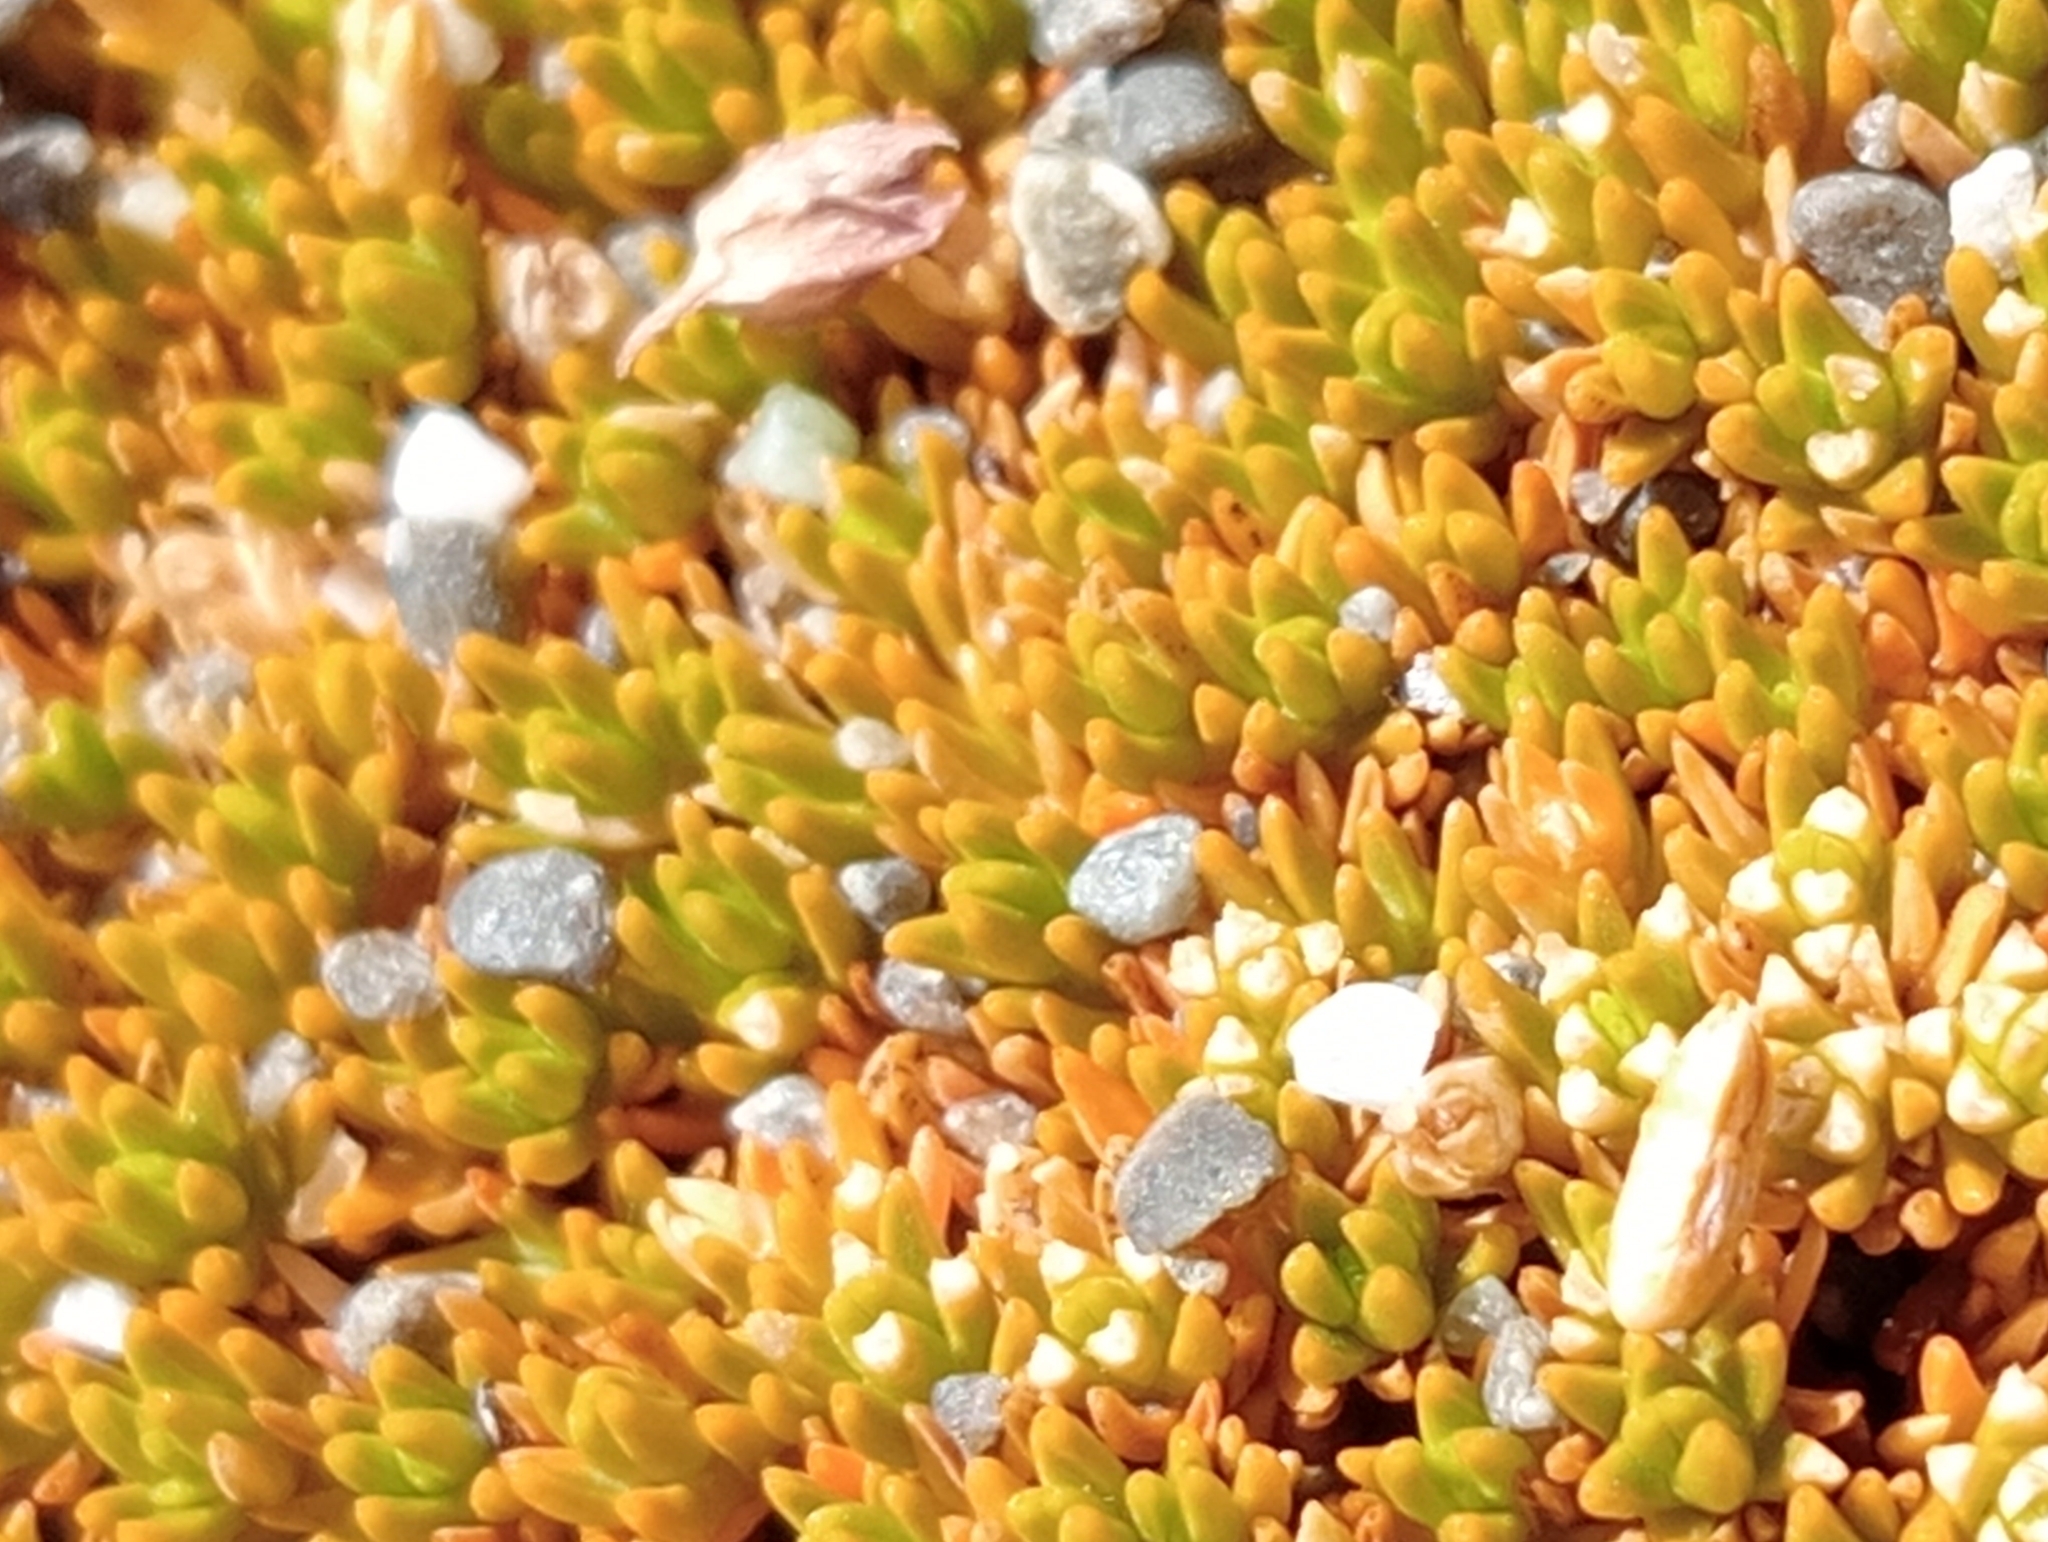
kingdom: Plantae
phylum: Tracheophyta
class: Magnoliopsida
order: Caryophyllales
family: Caryophyllaceae
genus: Scleranthus
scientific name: Scleranthus uniflorus
